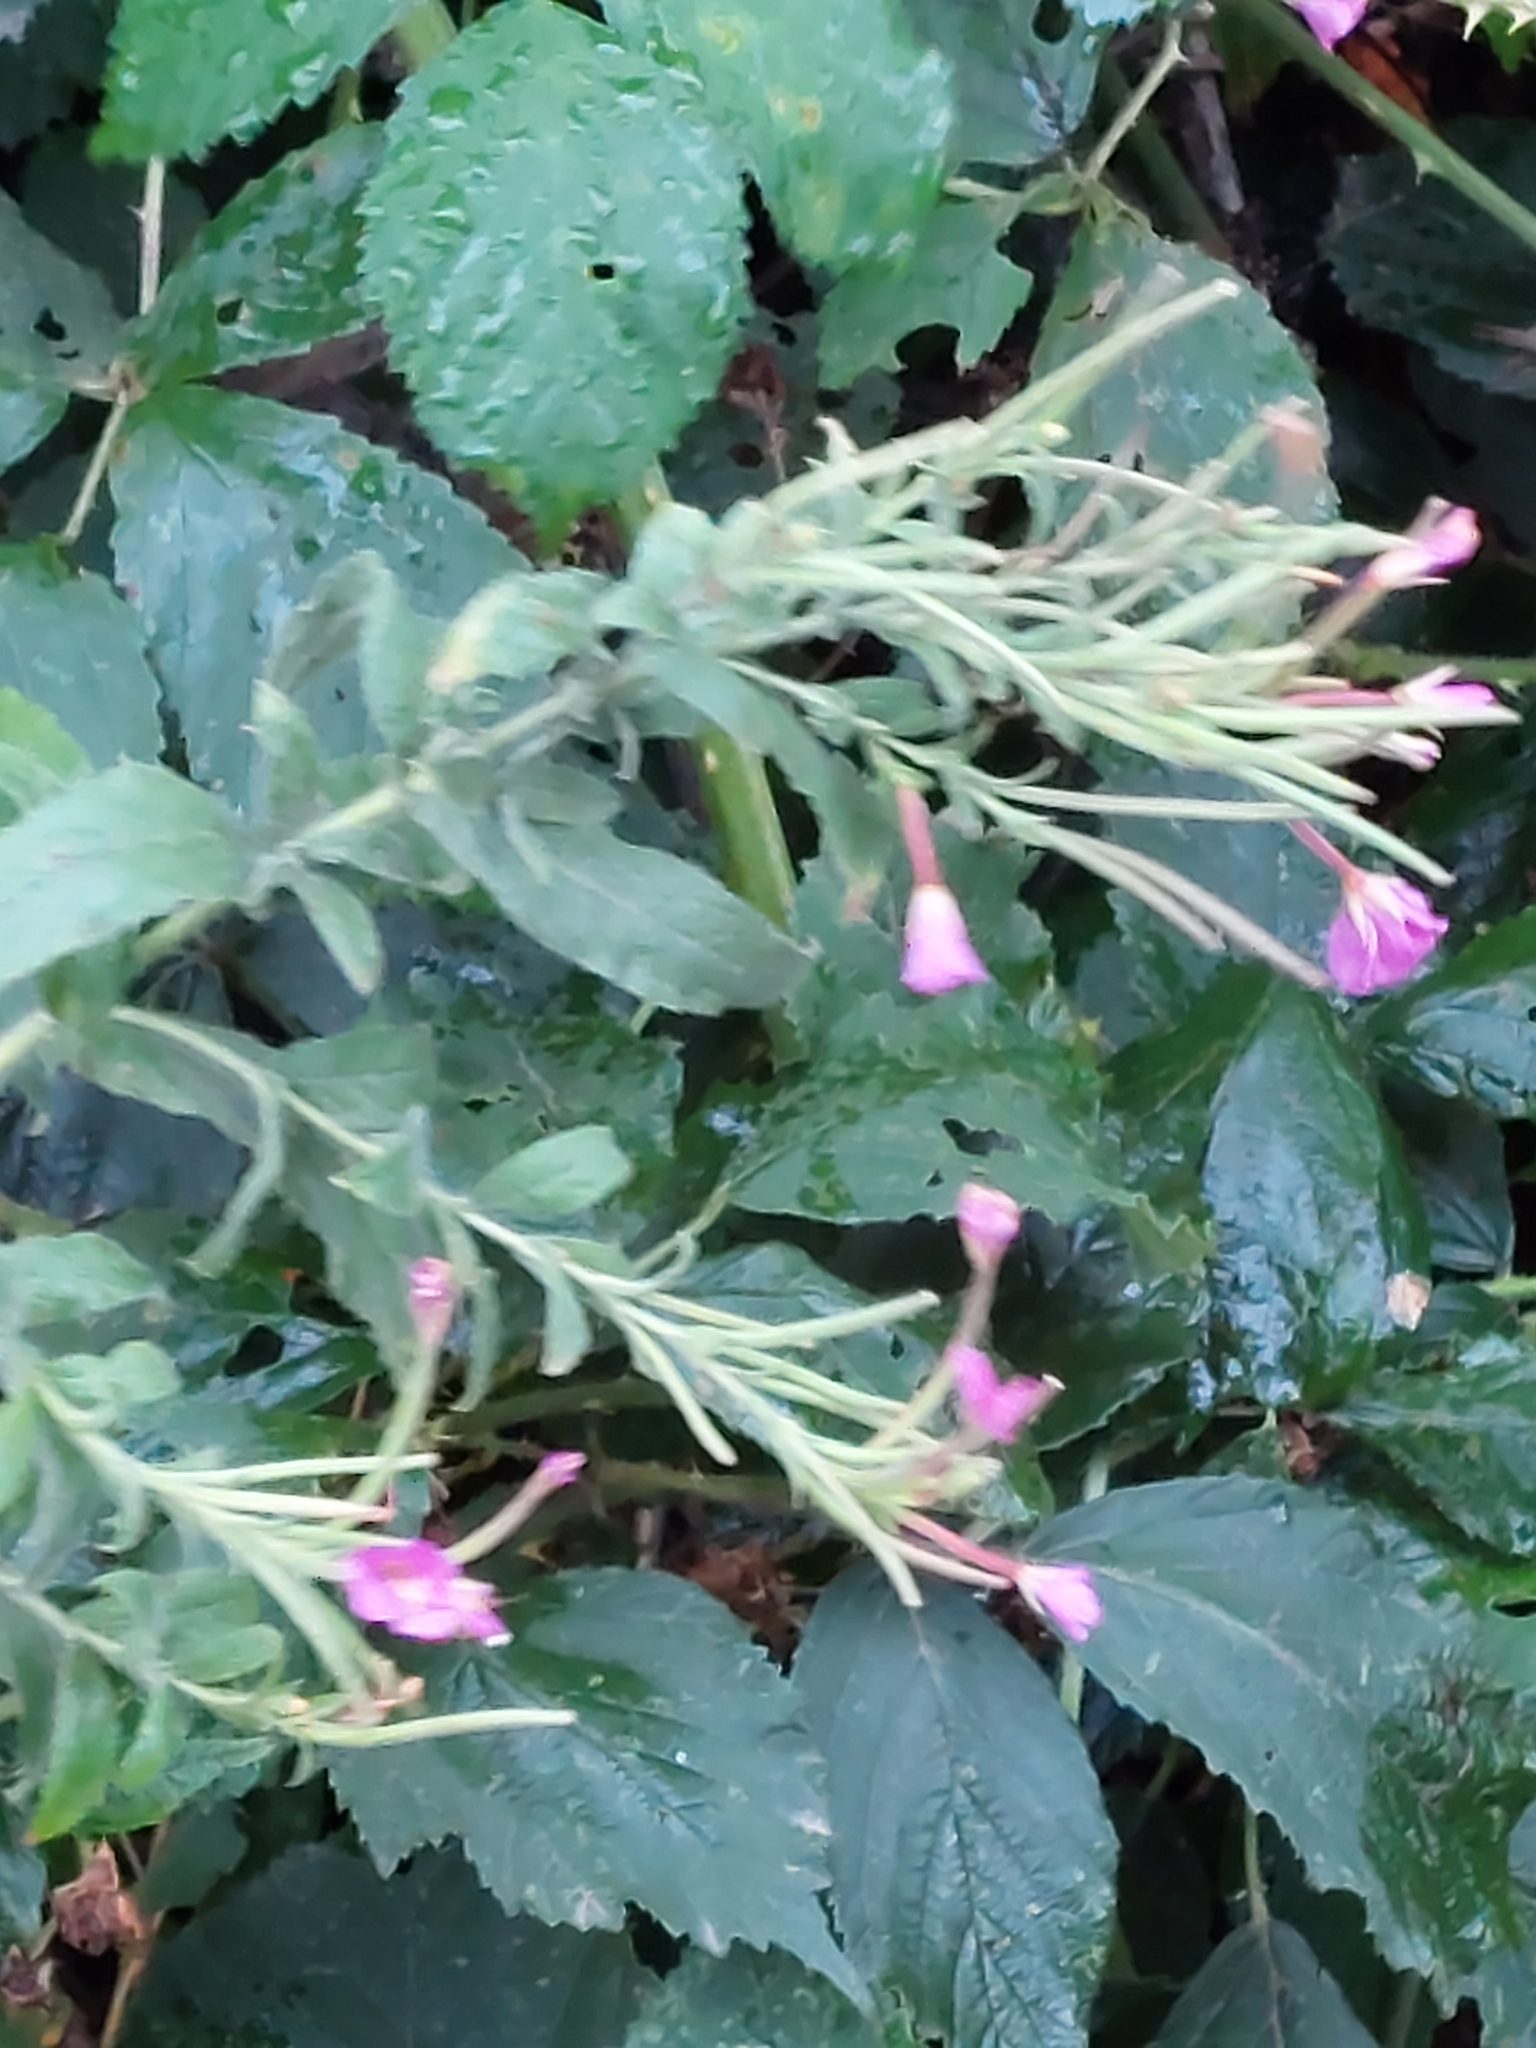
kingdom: Plantae
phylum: Tracheophyta
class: Magnoliopsida
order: Myrtales
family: Onagraceae
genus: Epilobium
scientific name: Epilobium hirsutum
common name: Great willowherb
